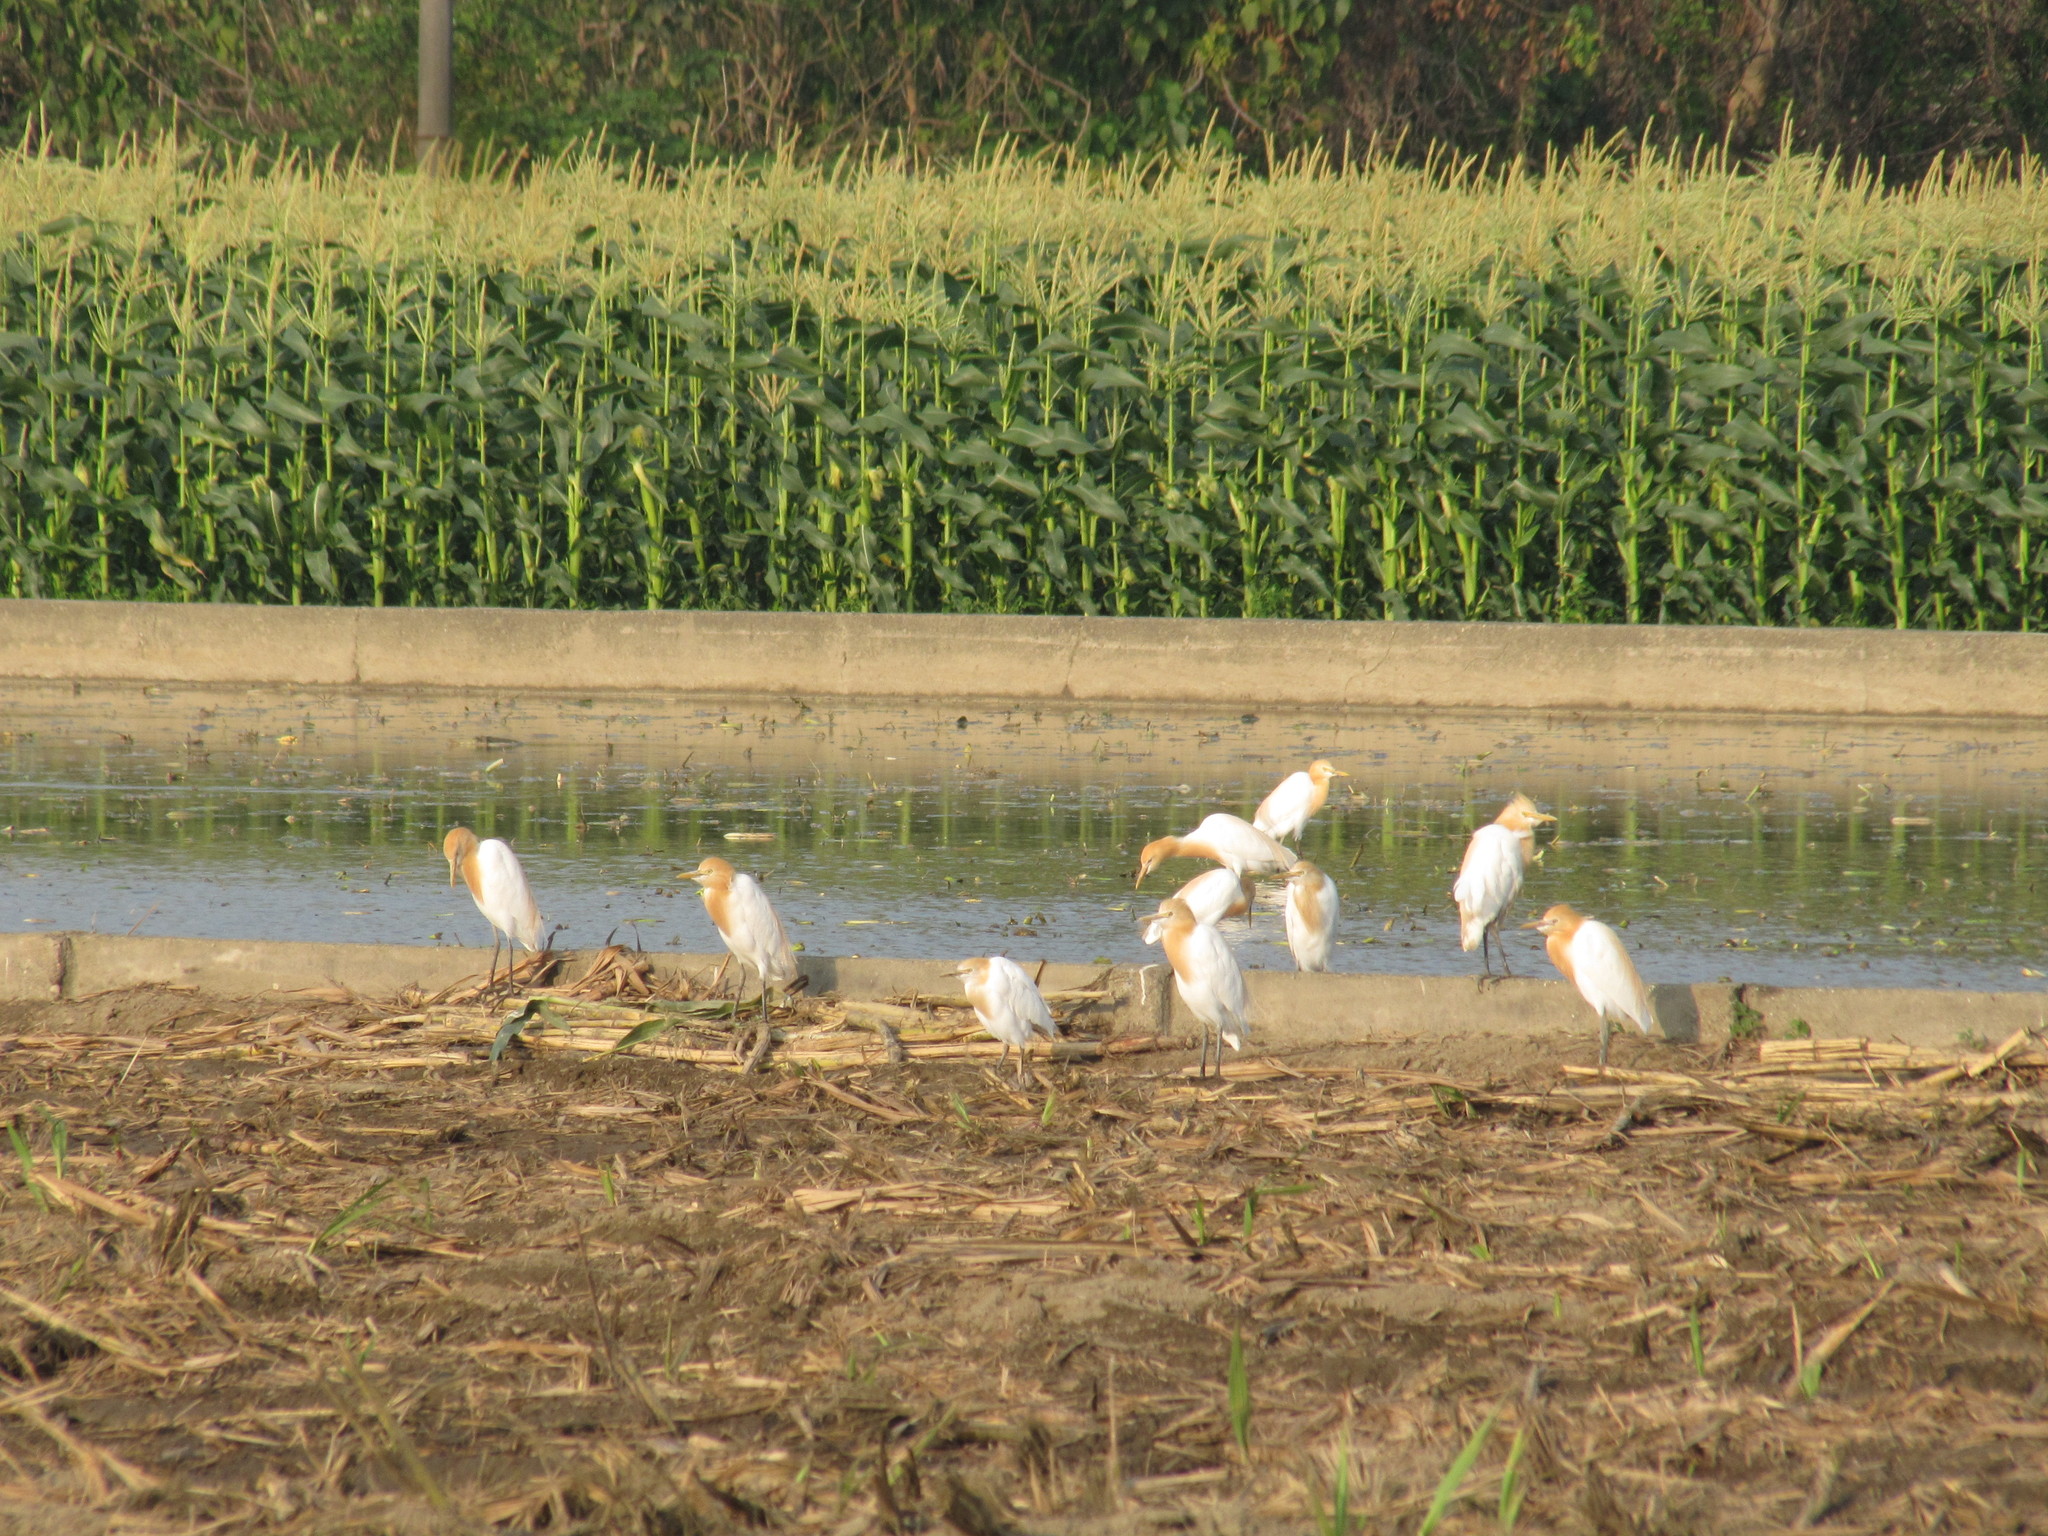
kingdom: Animalia
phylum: Chordata
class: Aves
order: Pelecaniformes
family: Ardeidae
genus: Bubulcus
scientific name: Bubulcus coromandus
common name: Eastern cattle egret
